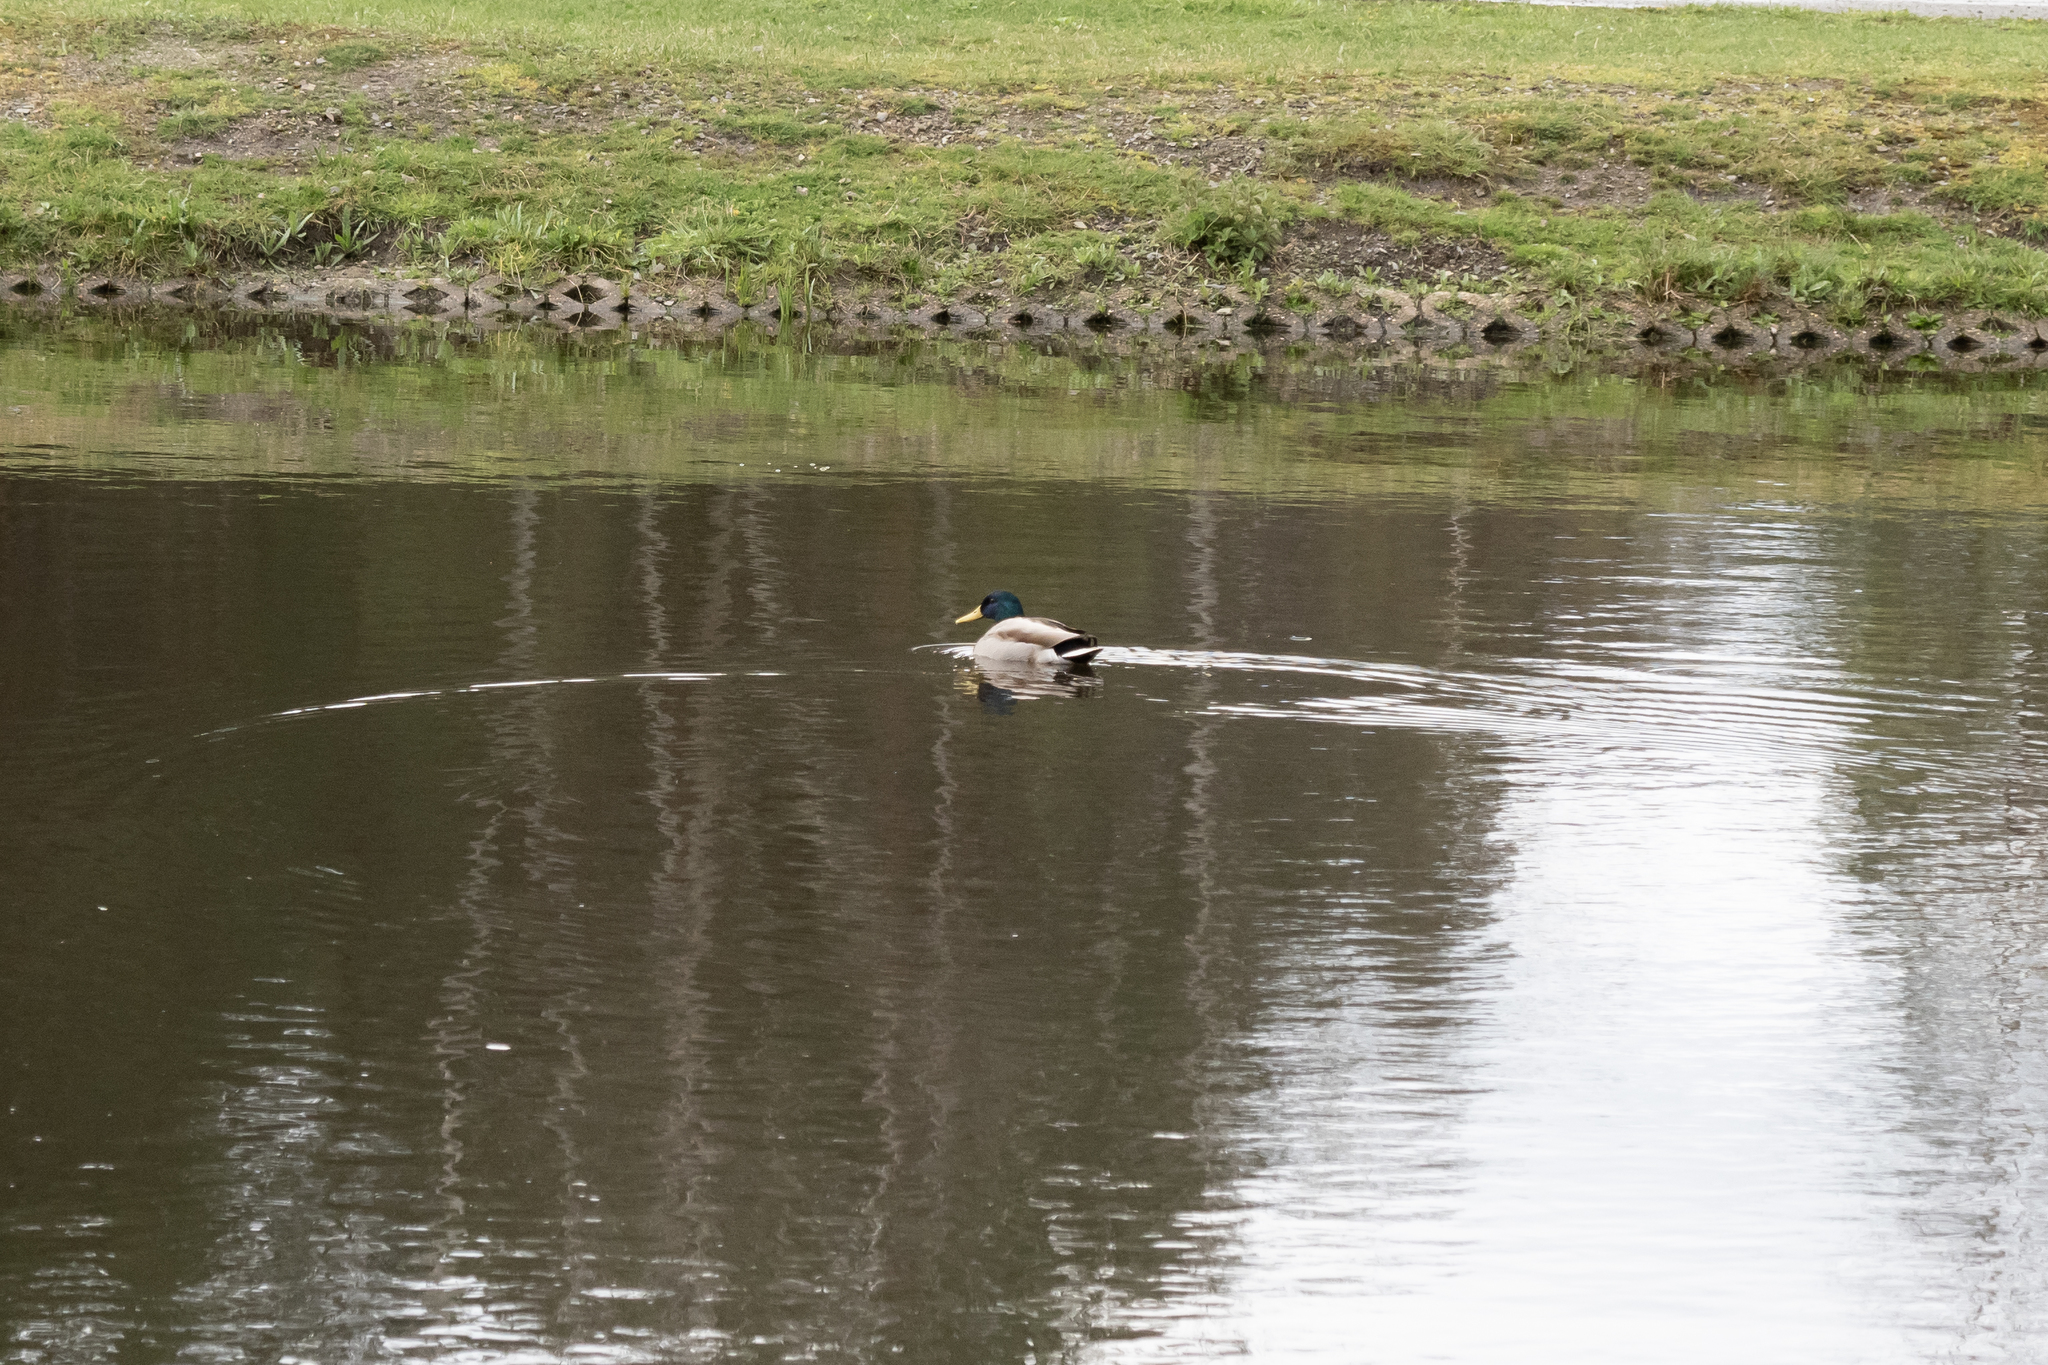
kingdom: Animalia
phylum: Chordata
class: Aves
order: Anseriformes
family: Anatidae
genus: Anas
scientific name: Anas platyrhynchos
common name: Mallard
